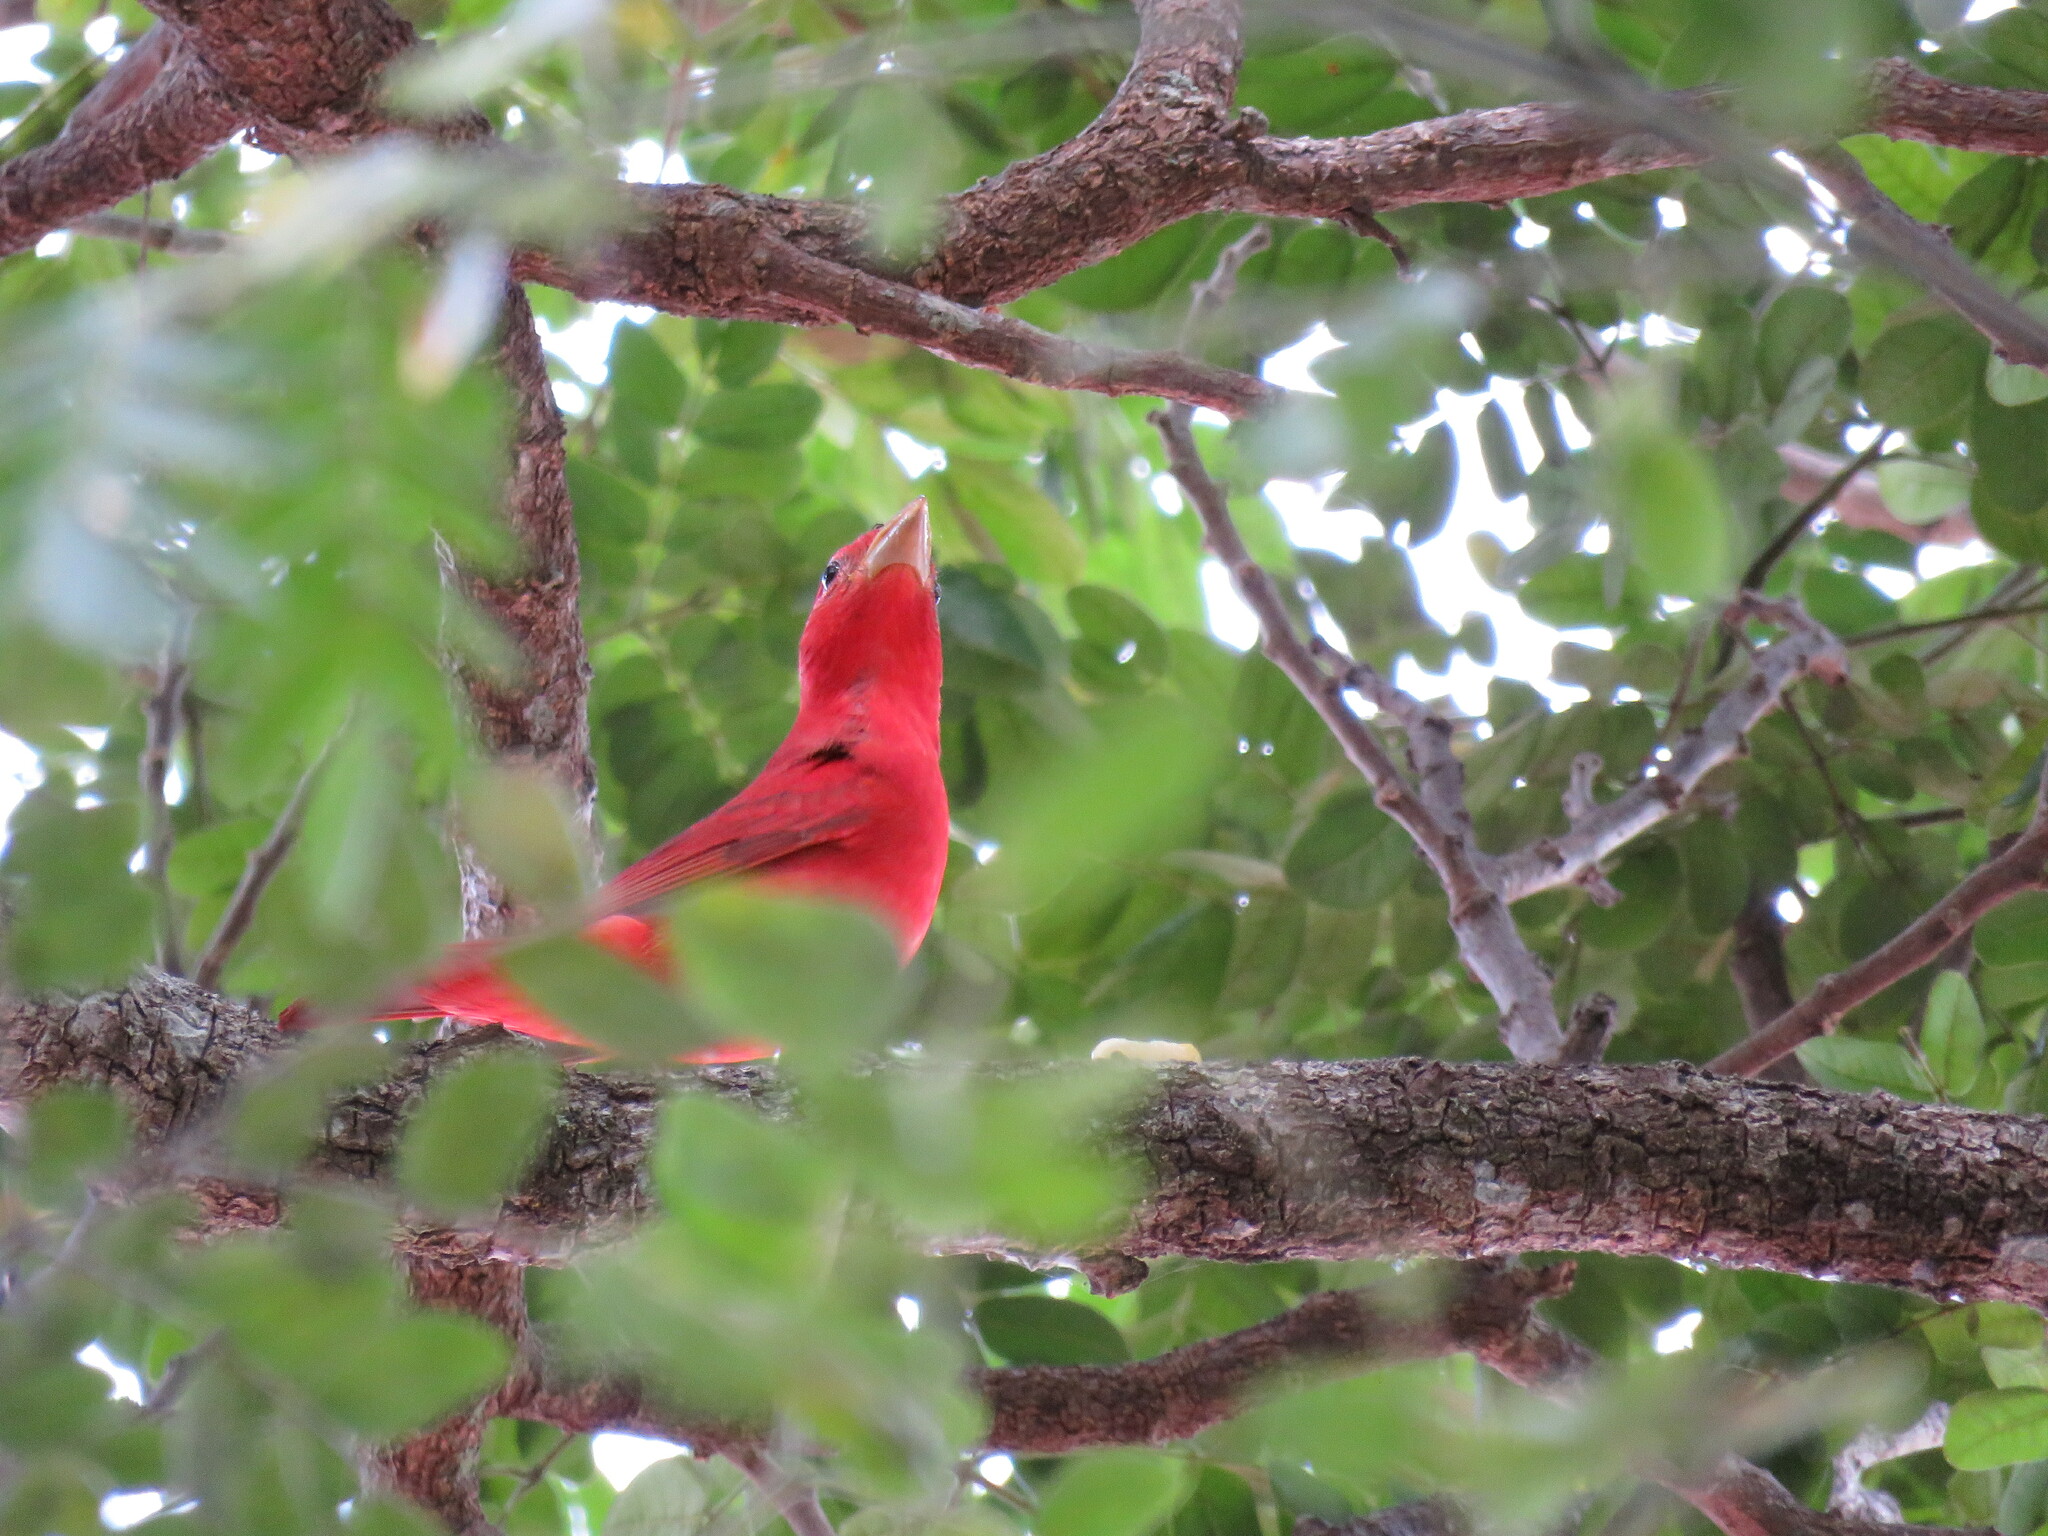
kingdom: Animalia
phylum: Chordata
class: Aves
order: Passeriformes
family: Cardinalidae
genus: Piranga
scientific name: Piranga rubra
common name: Summer tanager
